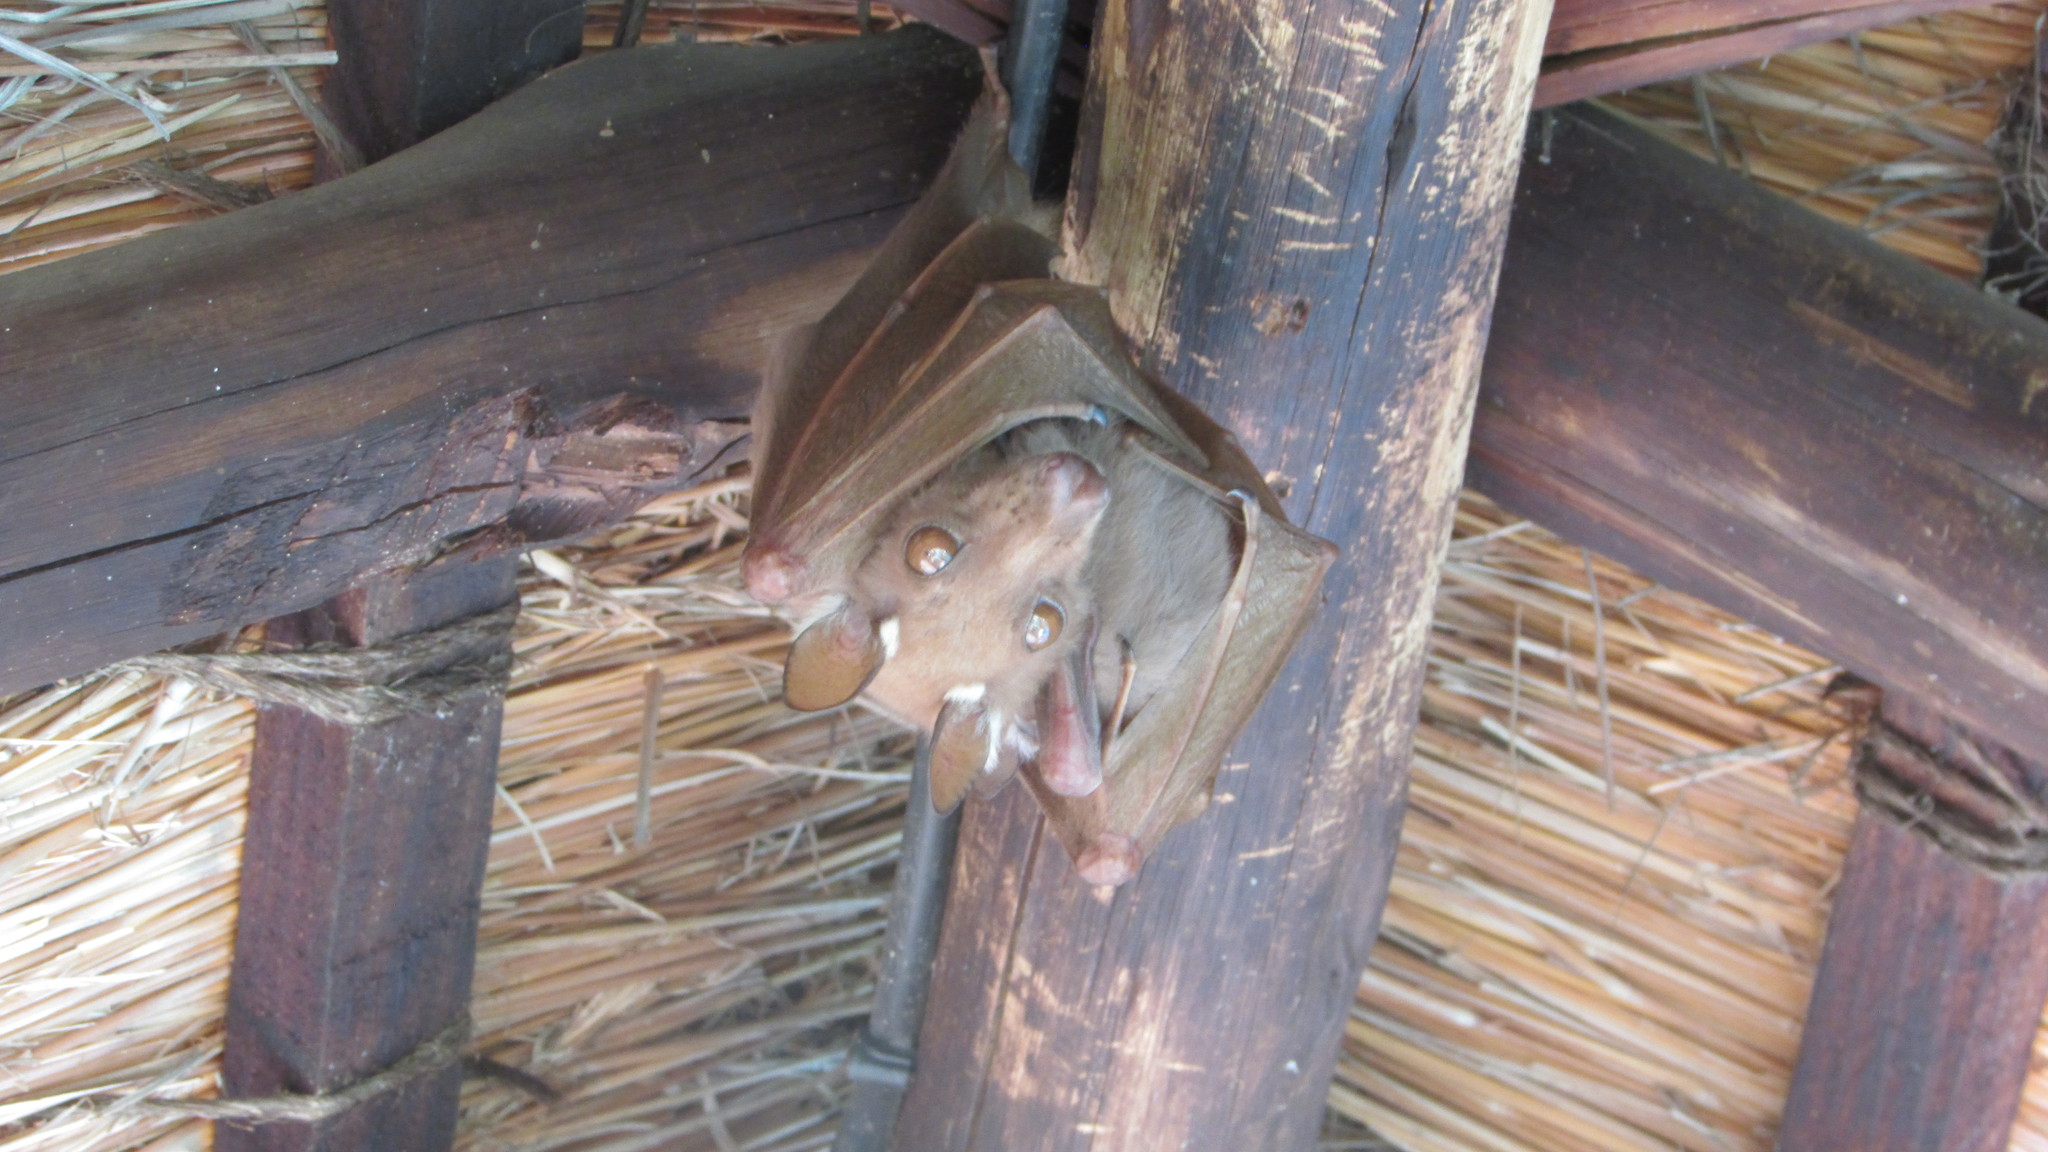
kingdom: Animalia
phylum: Chordata
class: Mammalia
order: Chiroptera
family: Pteropodidae
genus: Epomophorus
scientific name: Epomophorus wahlbergi
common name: Wahlberg's epauletted fruit bat
